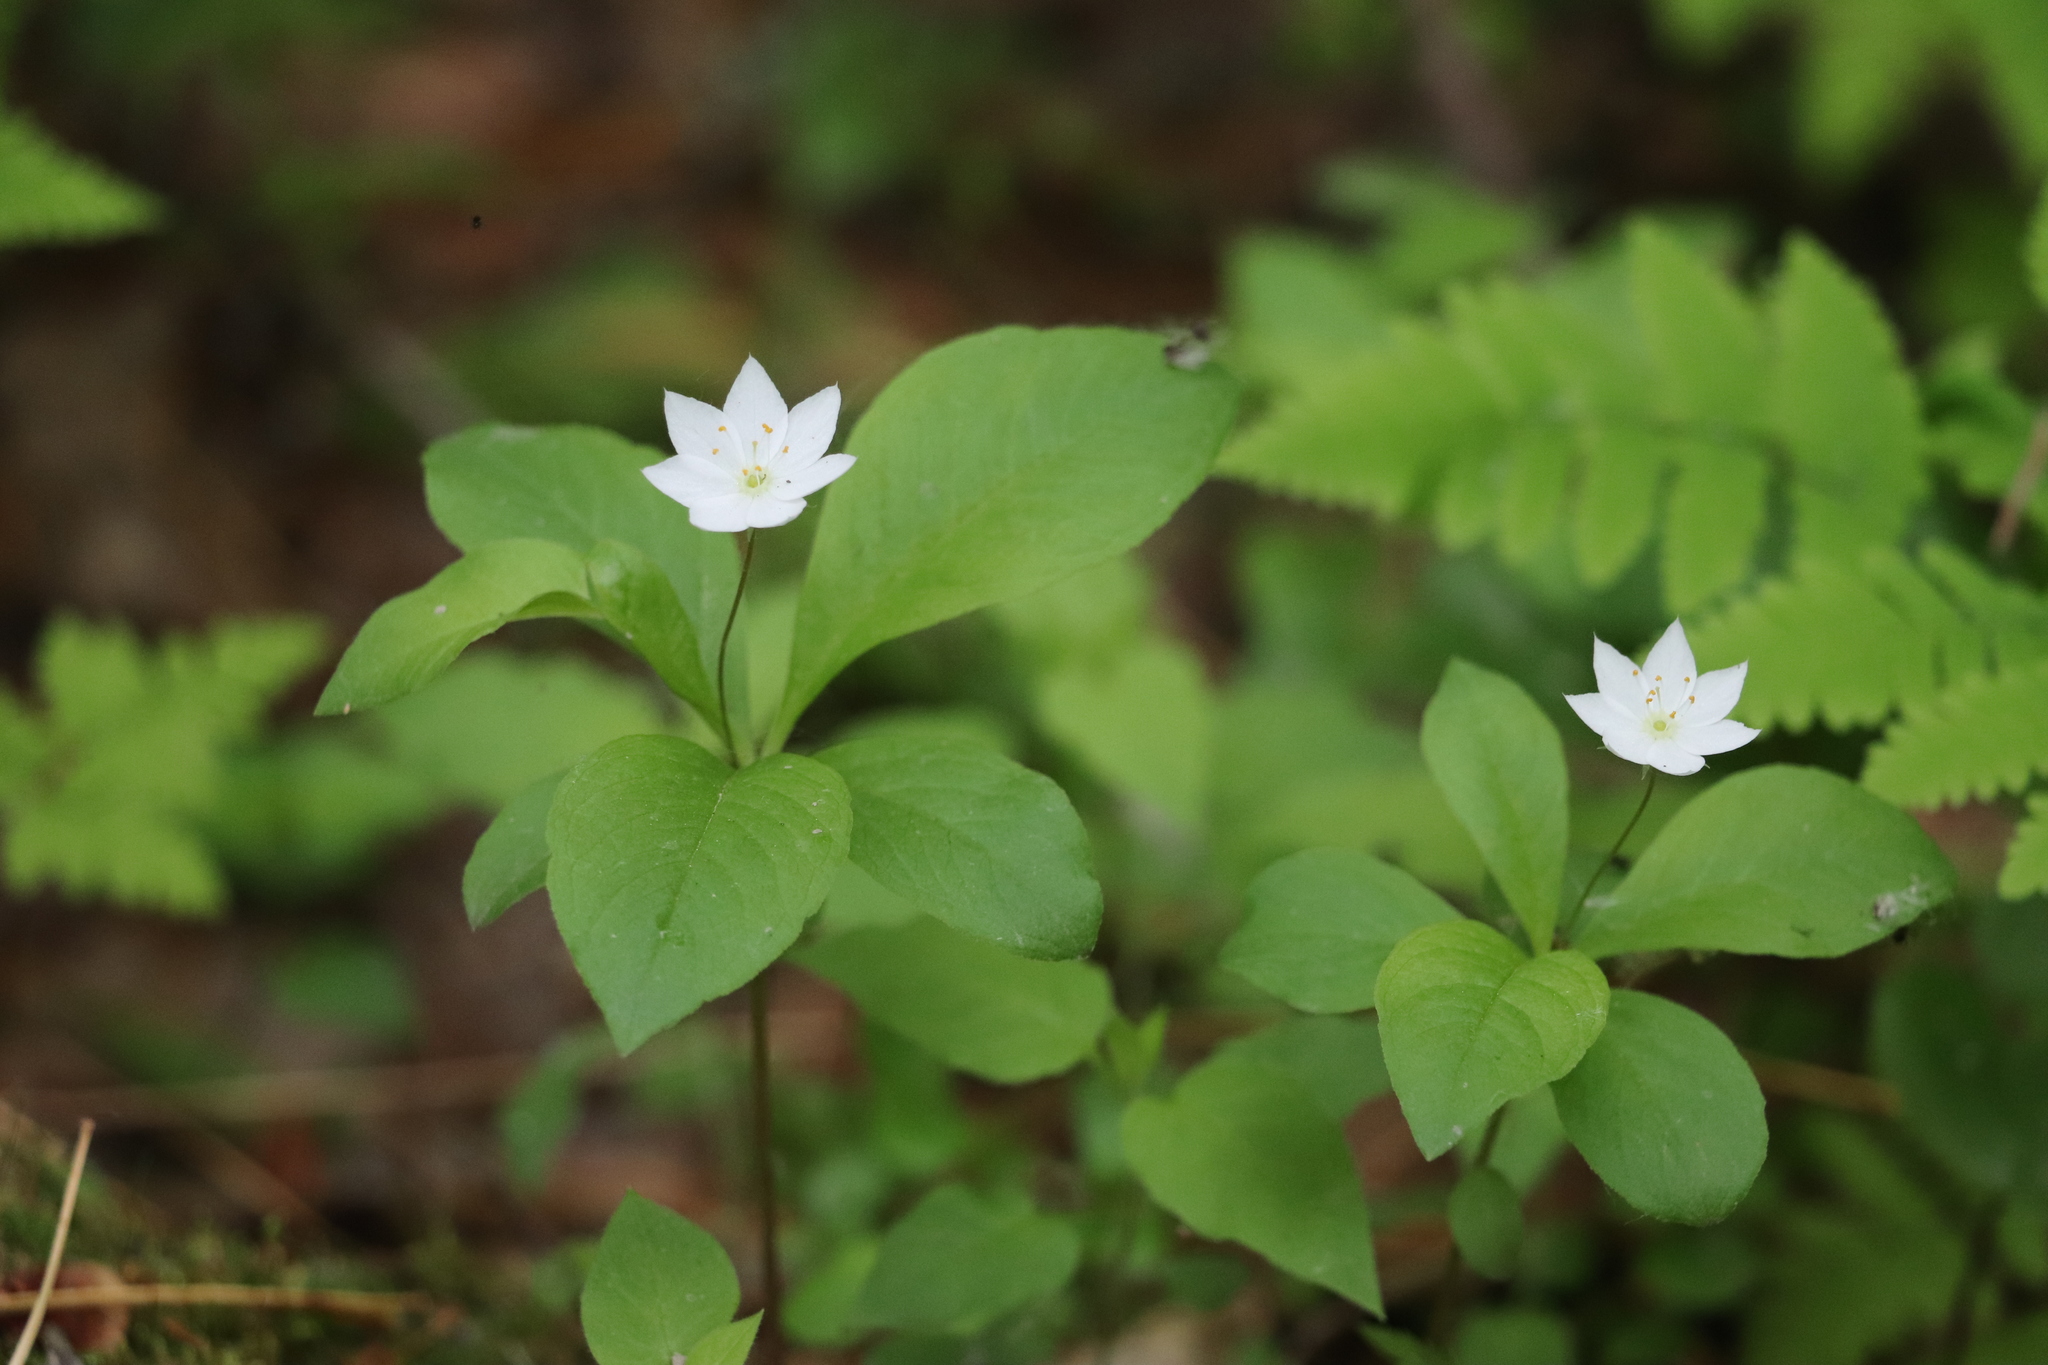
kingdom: Plantae
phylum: Tracheophyta
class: Magnoliopsida
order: Ericales
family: Primulaceae
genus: Lysimachia
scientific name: Lysimachia europaea
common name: Arctic starflower
